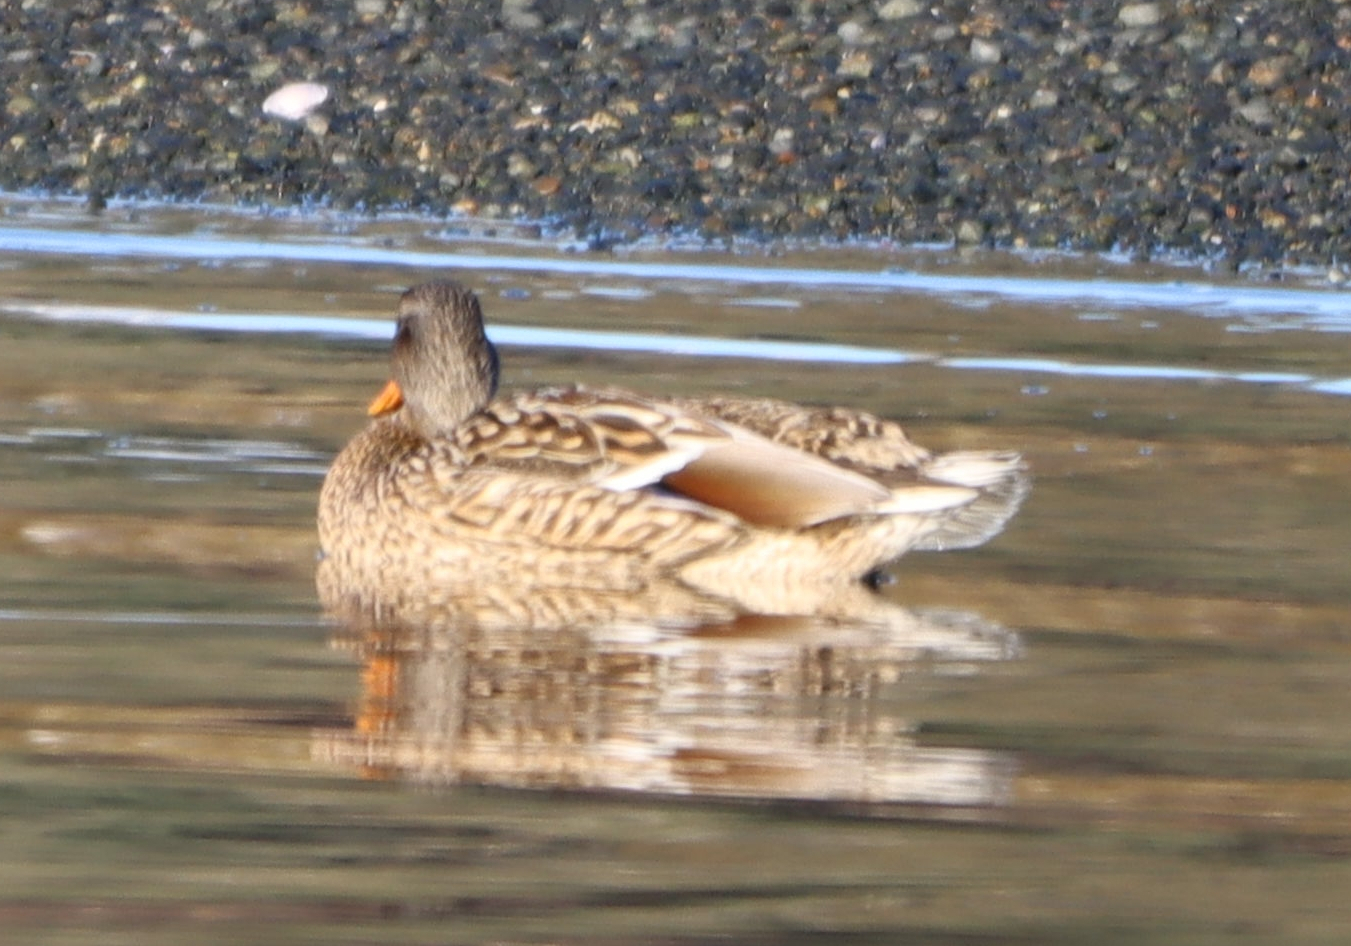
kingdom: Animalia
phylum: Chordata
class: Aves
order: Anseriformes
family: Anatidae
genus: Anas
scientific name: Anas platyrhynchos
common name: Mallard
